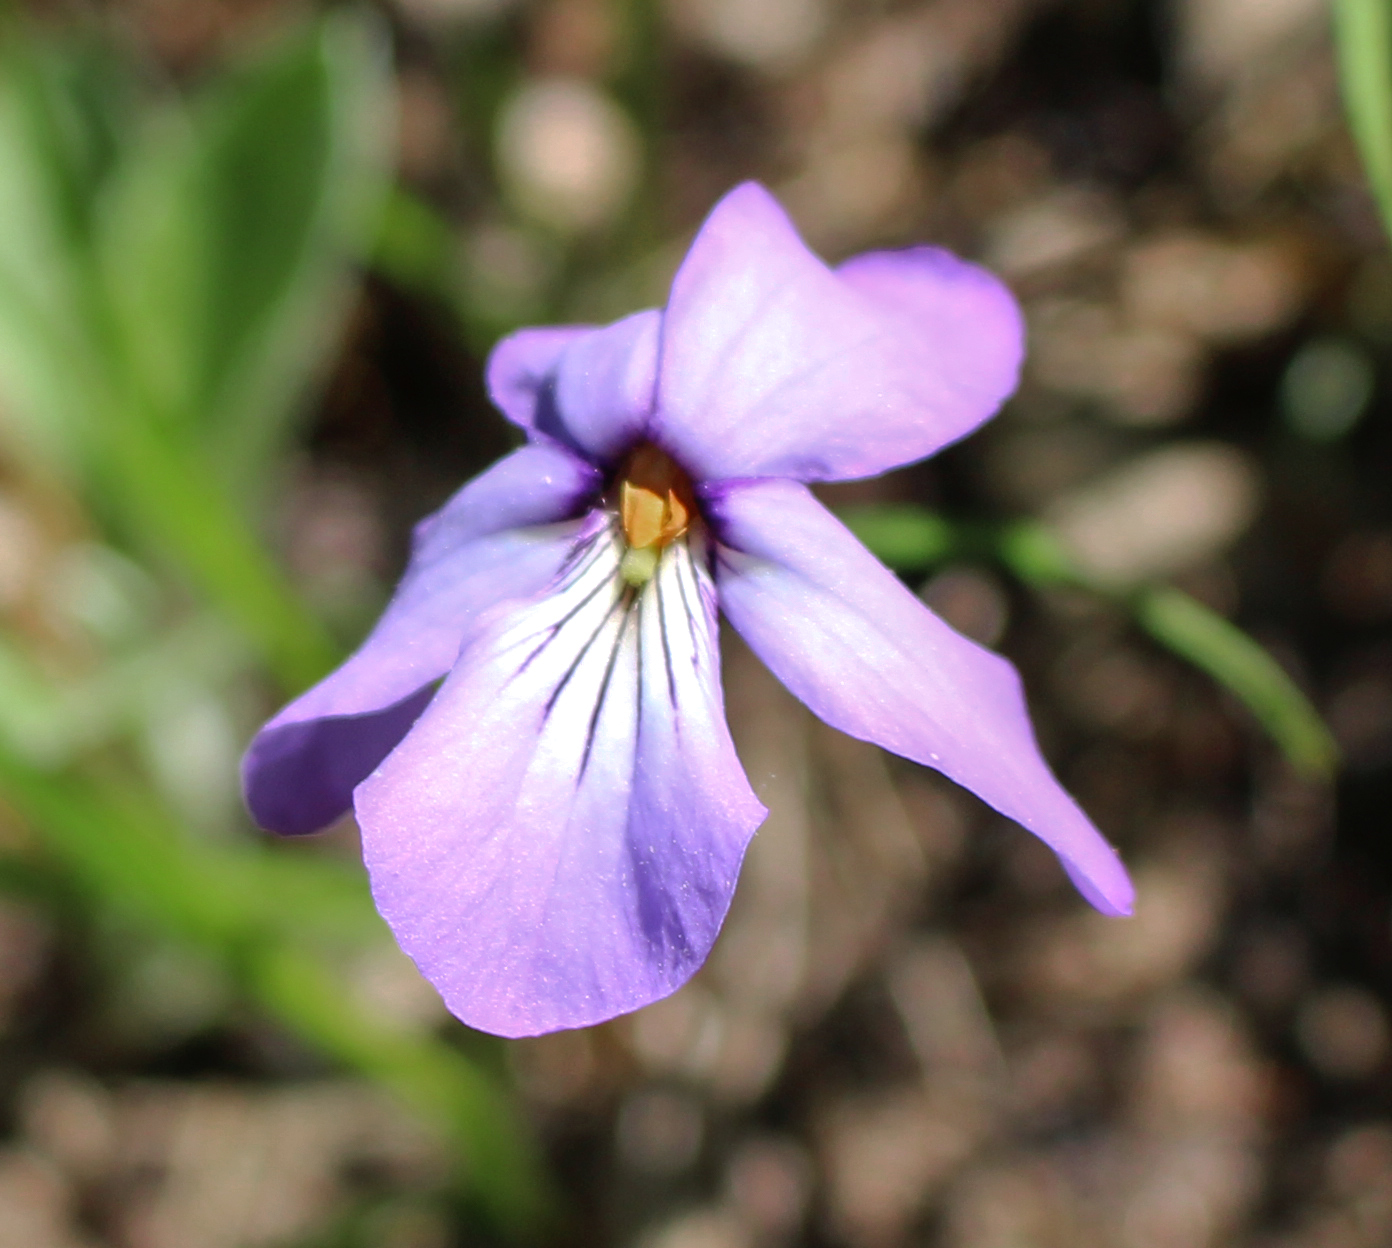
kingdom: Plantae
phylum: Tracheophyta
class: Magnoliopsida
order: Malpighiales
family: Violaceae
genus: Viola
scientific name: Viola pedata
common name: Pansy violet
